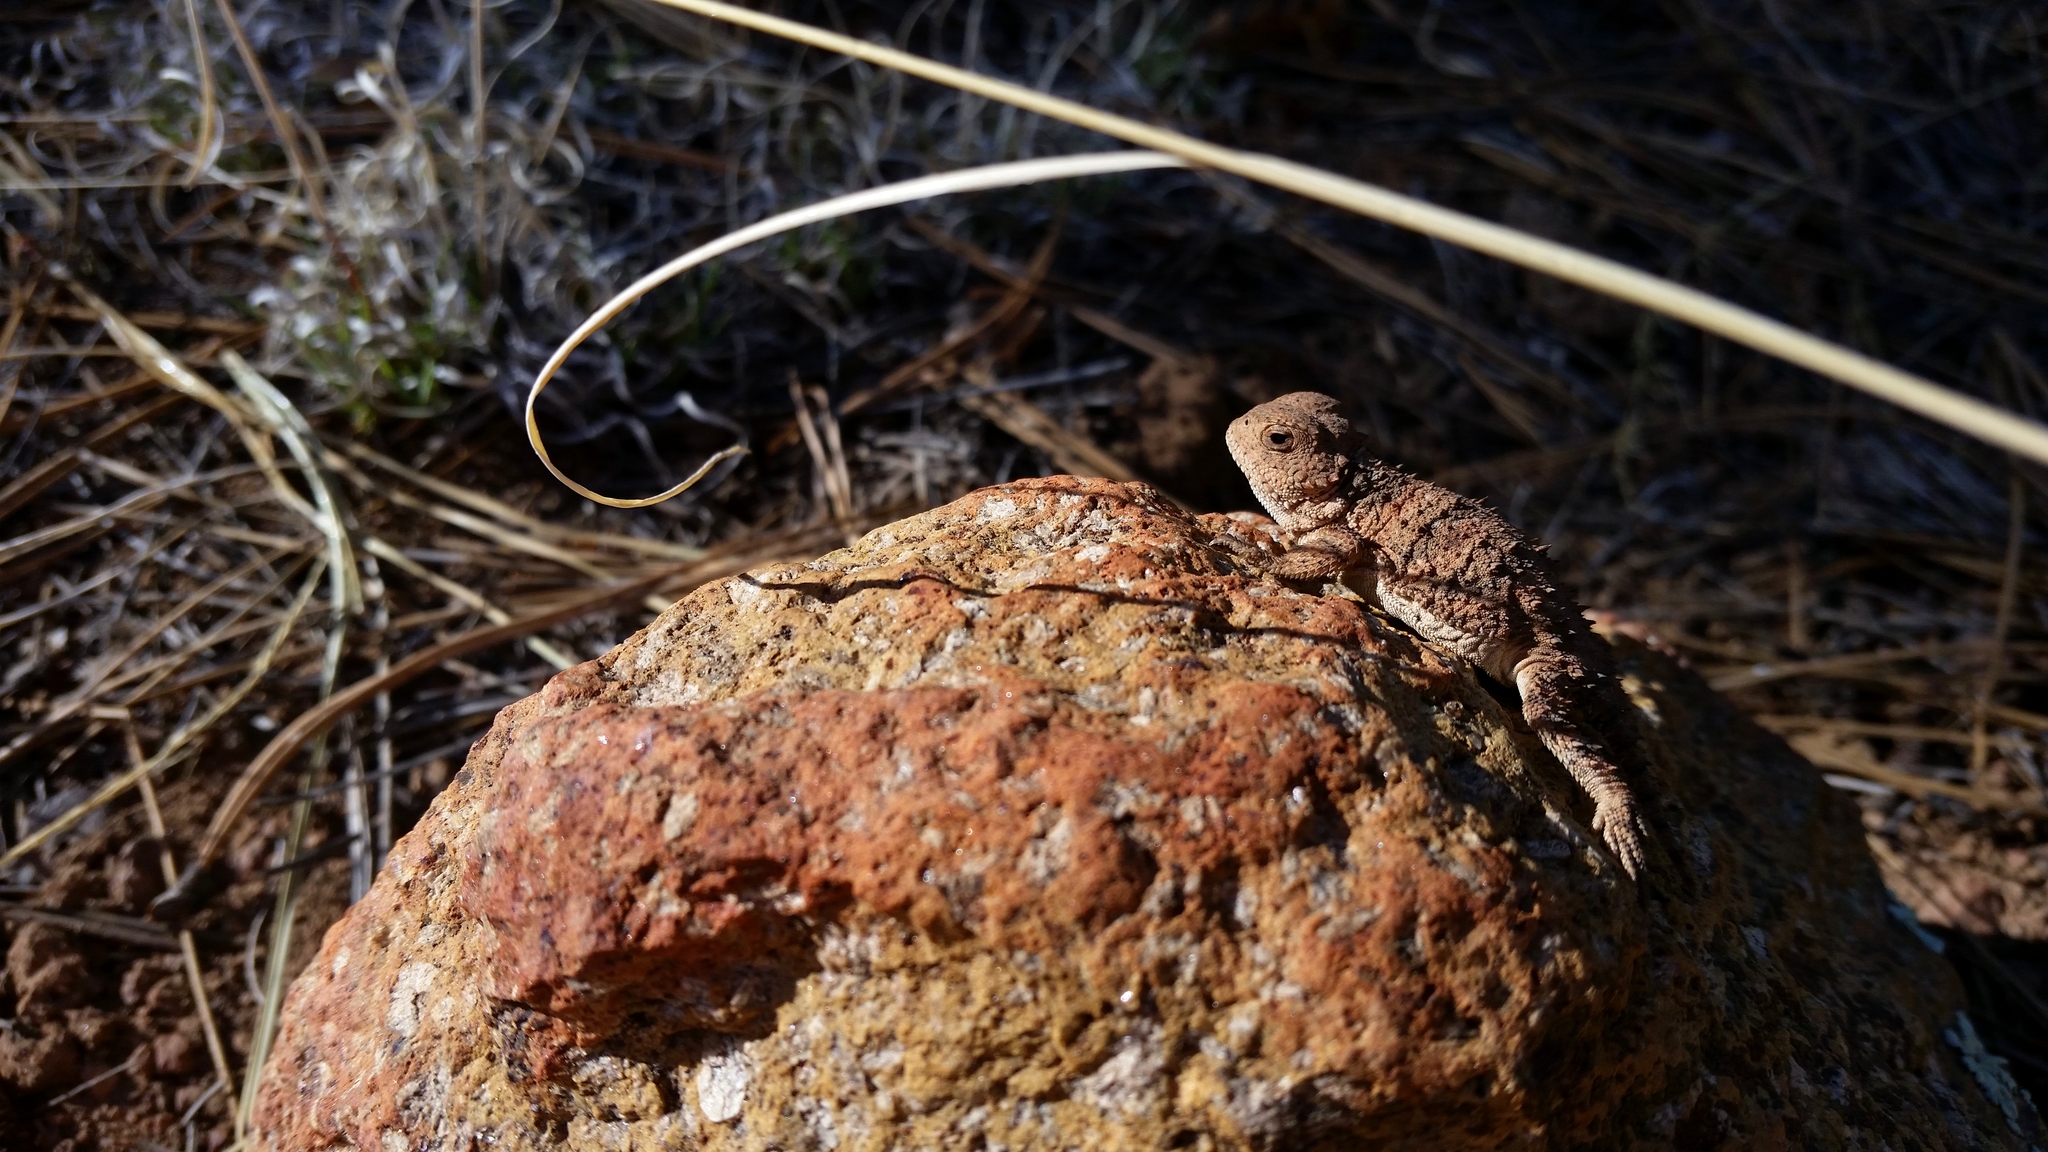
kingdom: Animalia
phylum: Chordata
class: Squamata
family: Phrynosomatidae
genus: Phrynosoma
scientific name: Phrynosoma hernandesi
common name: Greater short-horned lizard
